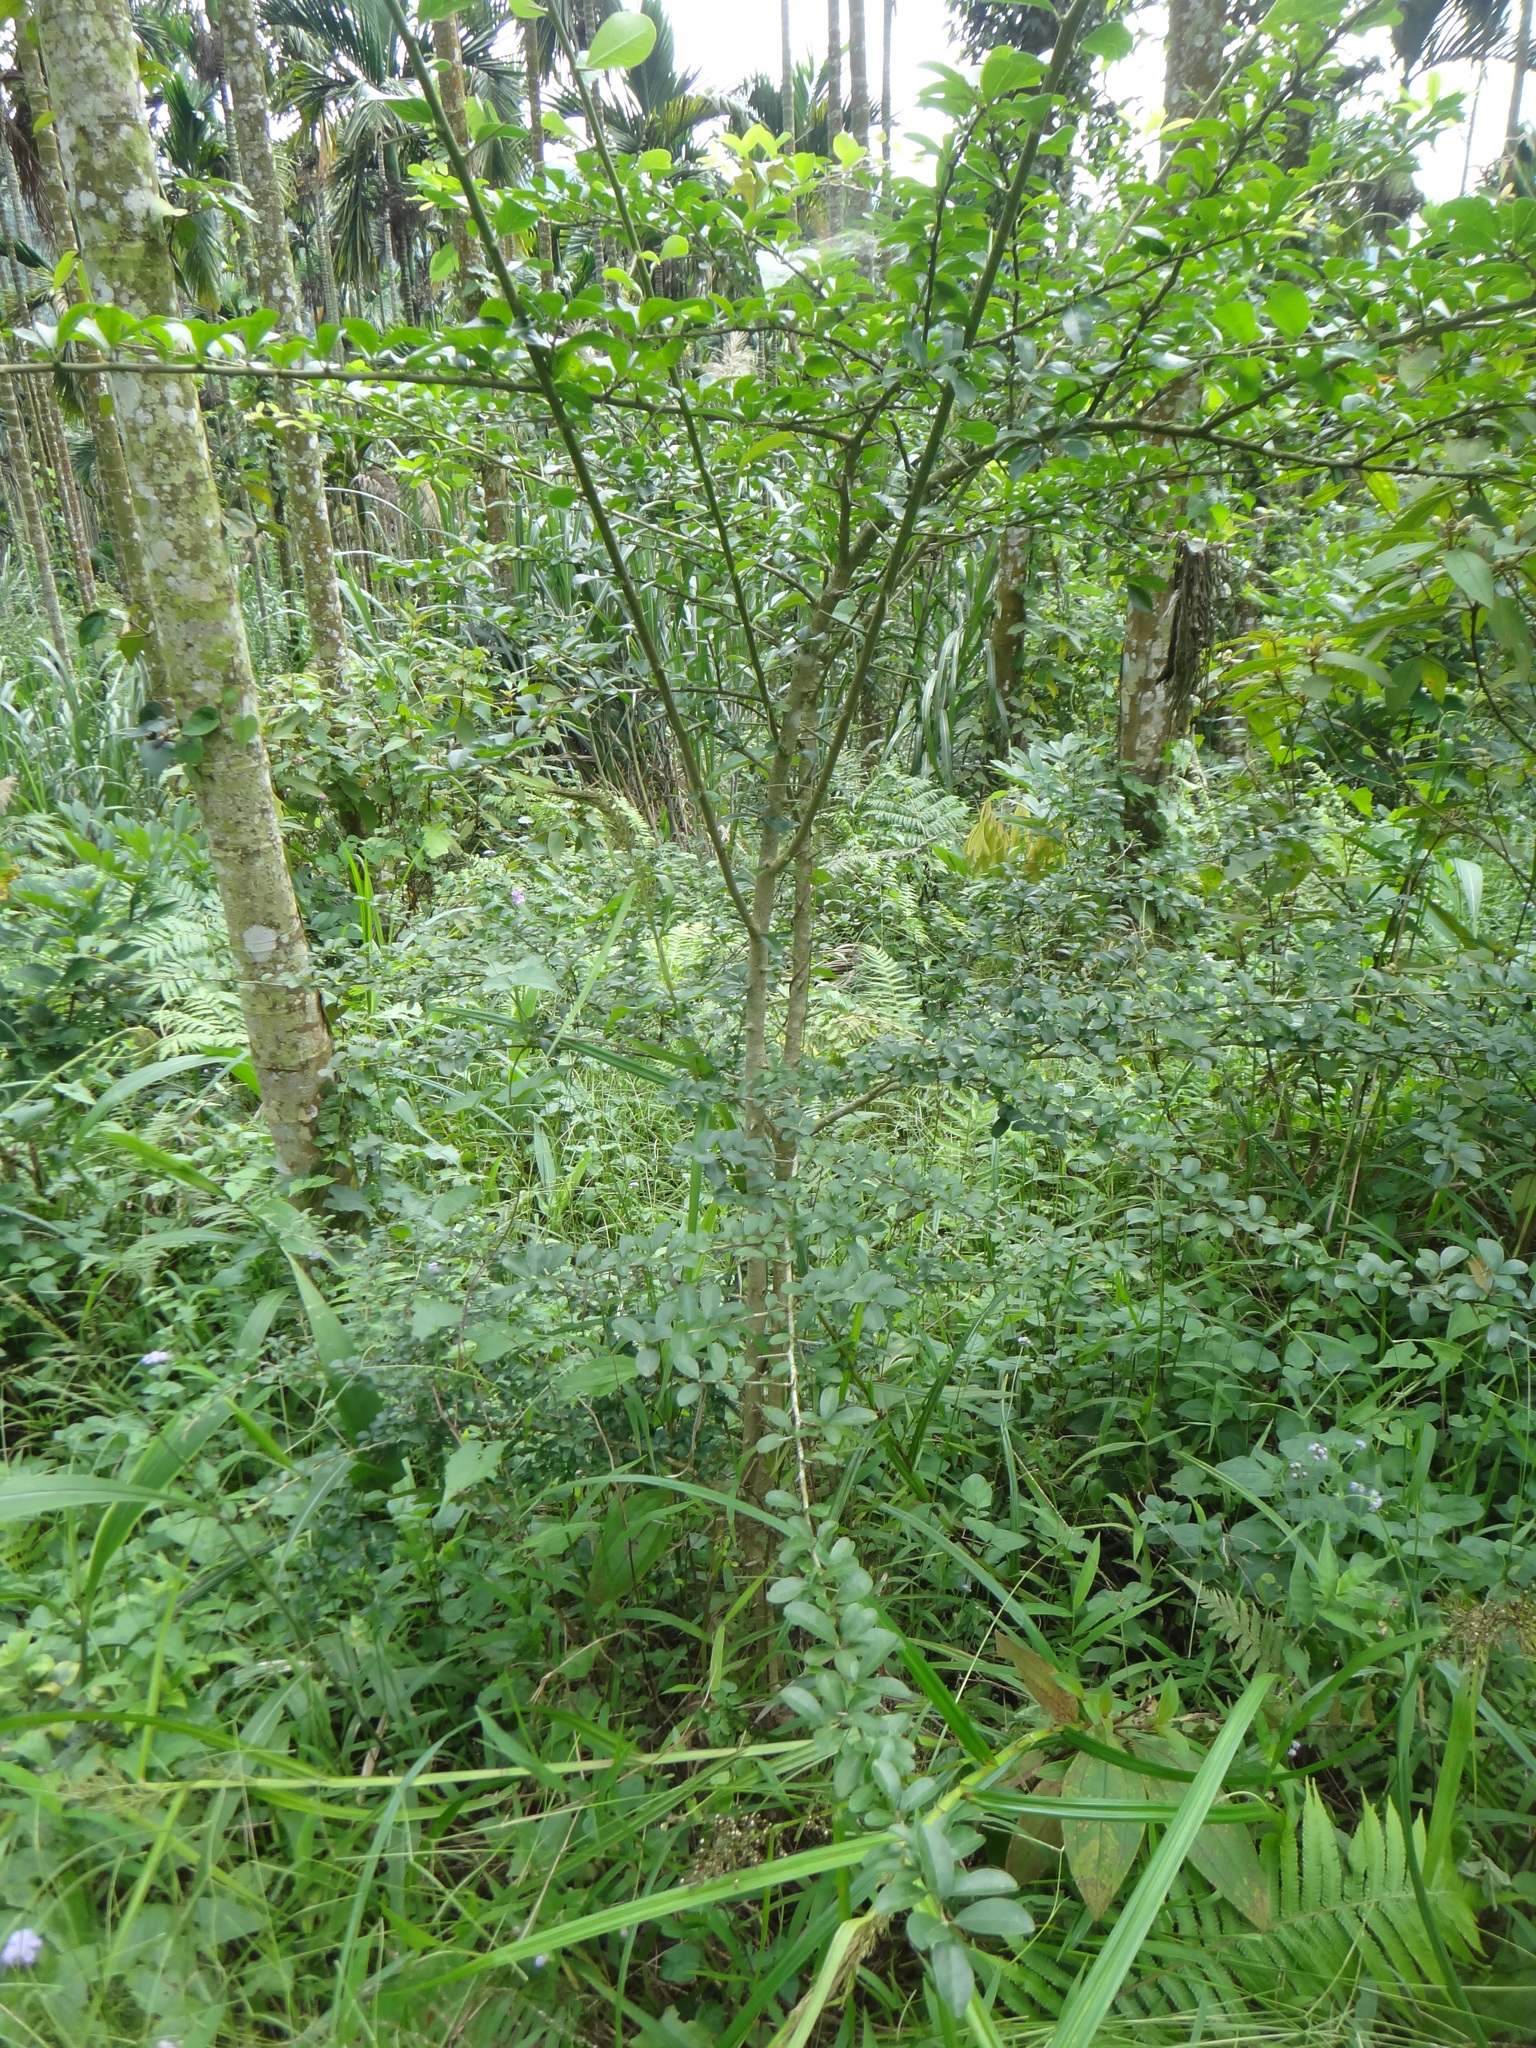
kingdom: Plantae
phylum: Tracheophyta
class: Magnoliopsida
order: Rosales
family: Moraceae
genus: Maclura
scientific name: Maclura cochinchinensis
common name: Cockspurthorn
